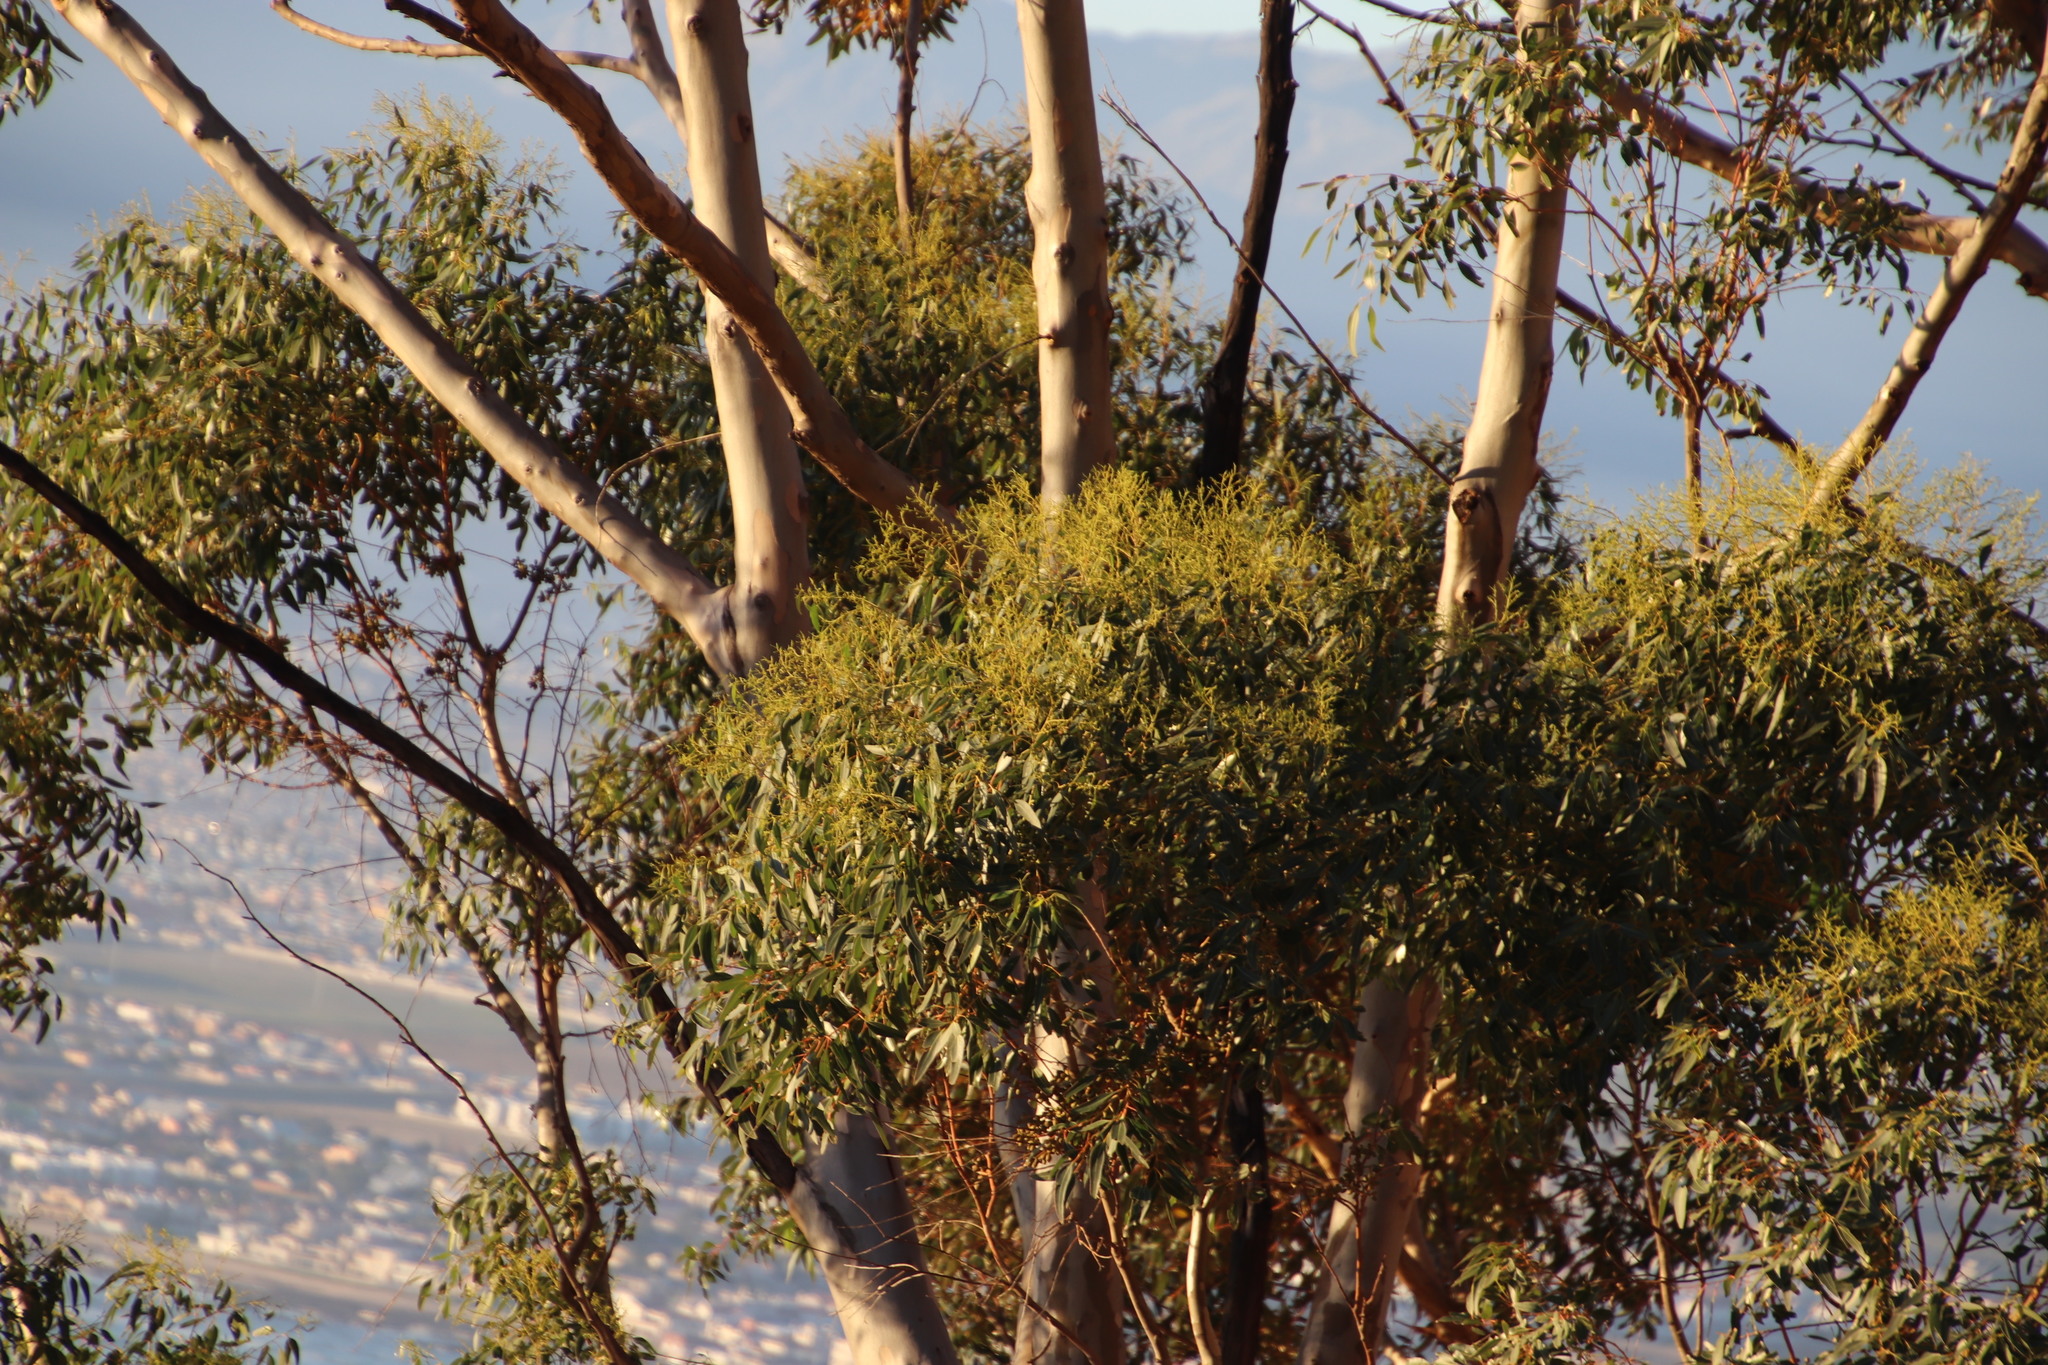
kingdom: Plantae
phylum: Tracheophyta
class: Magnoliopsida
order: Myrtales
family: Myrtaceae
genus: Eucalyptus
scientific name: Eucalyptus cladocalyx
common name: Sugargum
